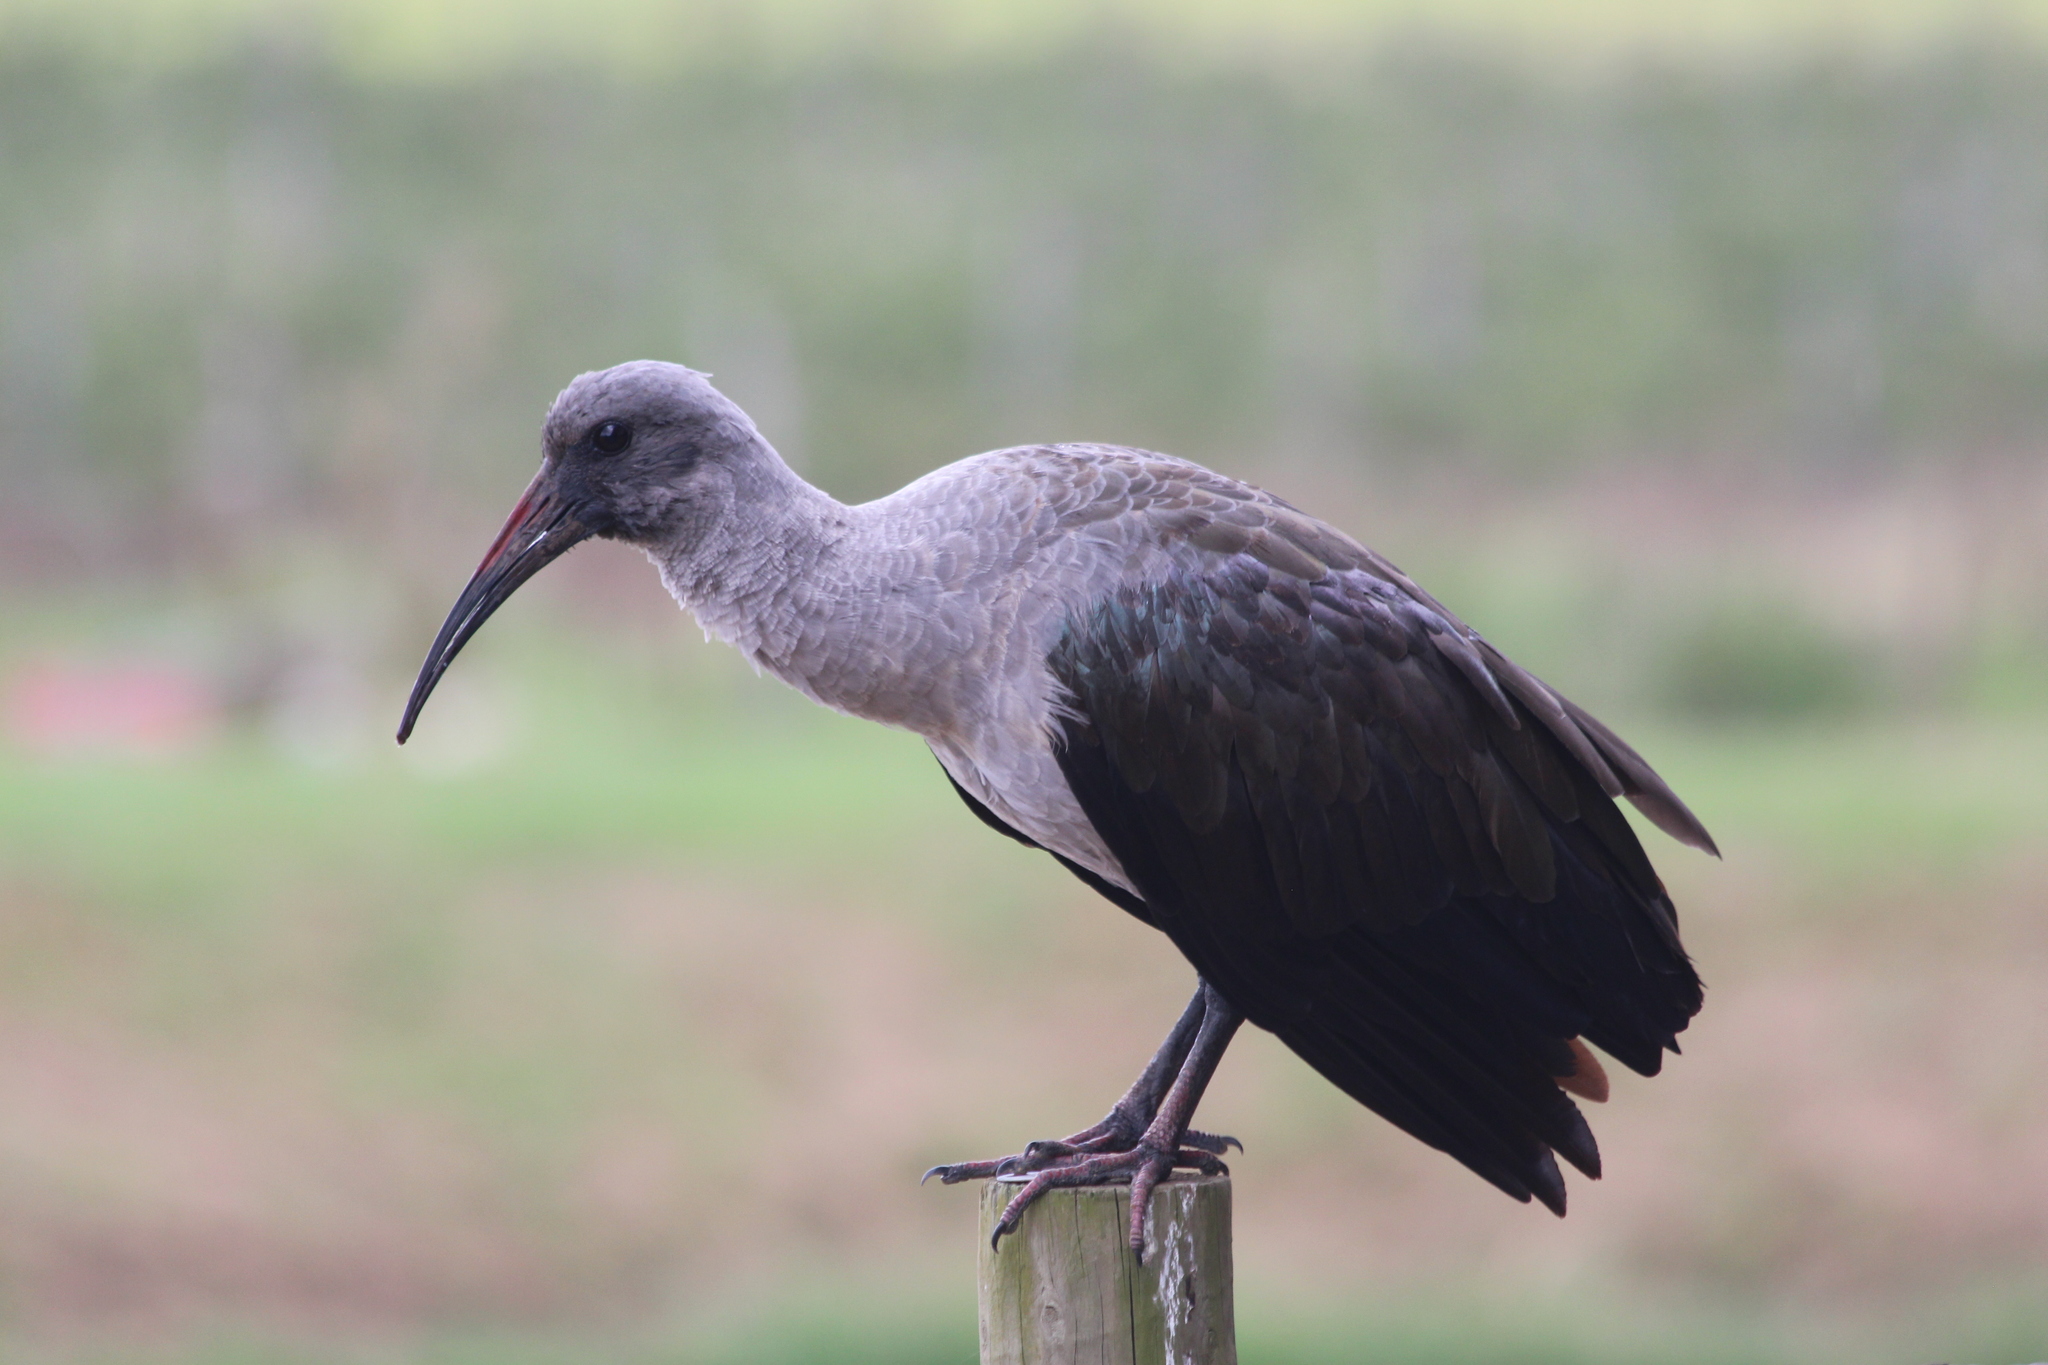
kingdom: Animalia
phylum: Chordata
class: Aves
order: Pelecaniformes
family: Threskiornithidae
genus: Bostrychia
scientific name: Bostrychia hagedash
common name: Hadada ibis
